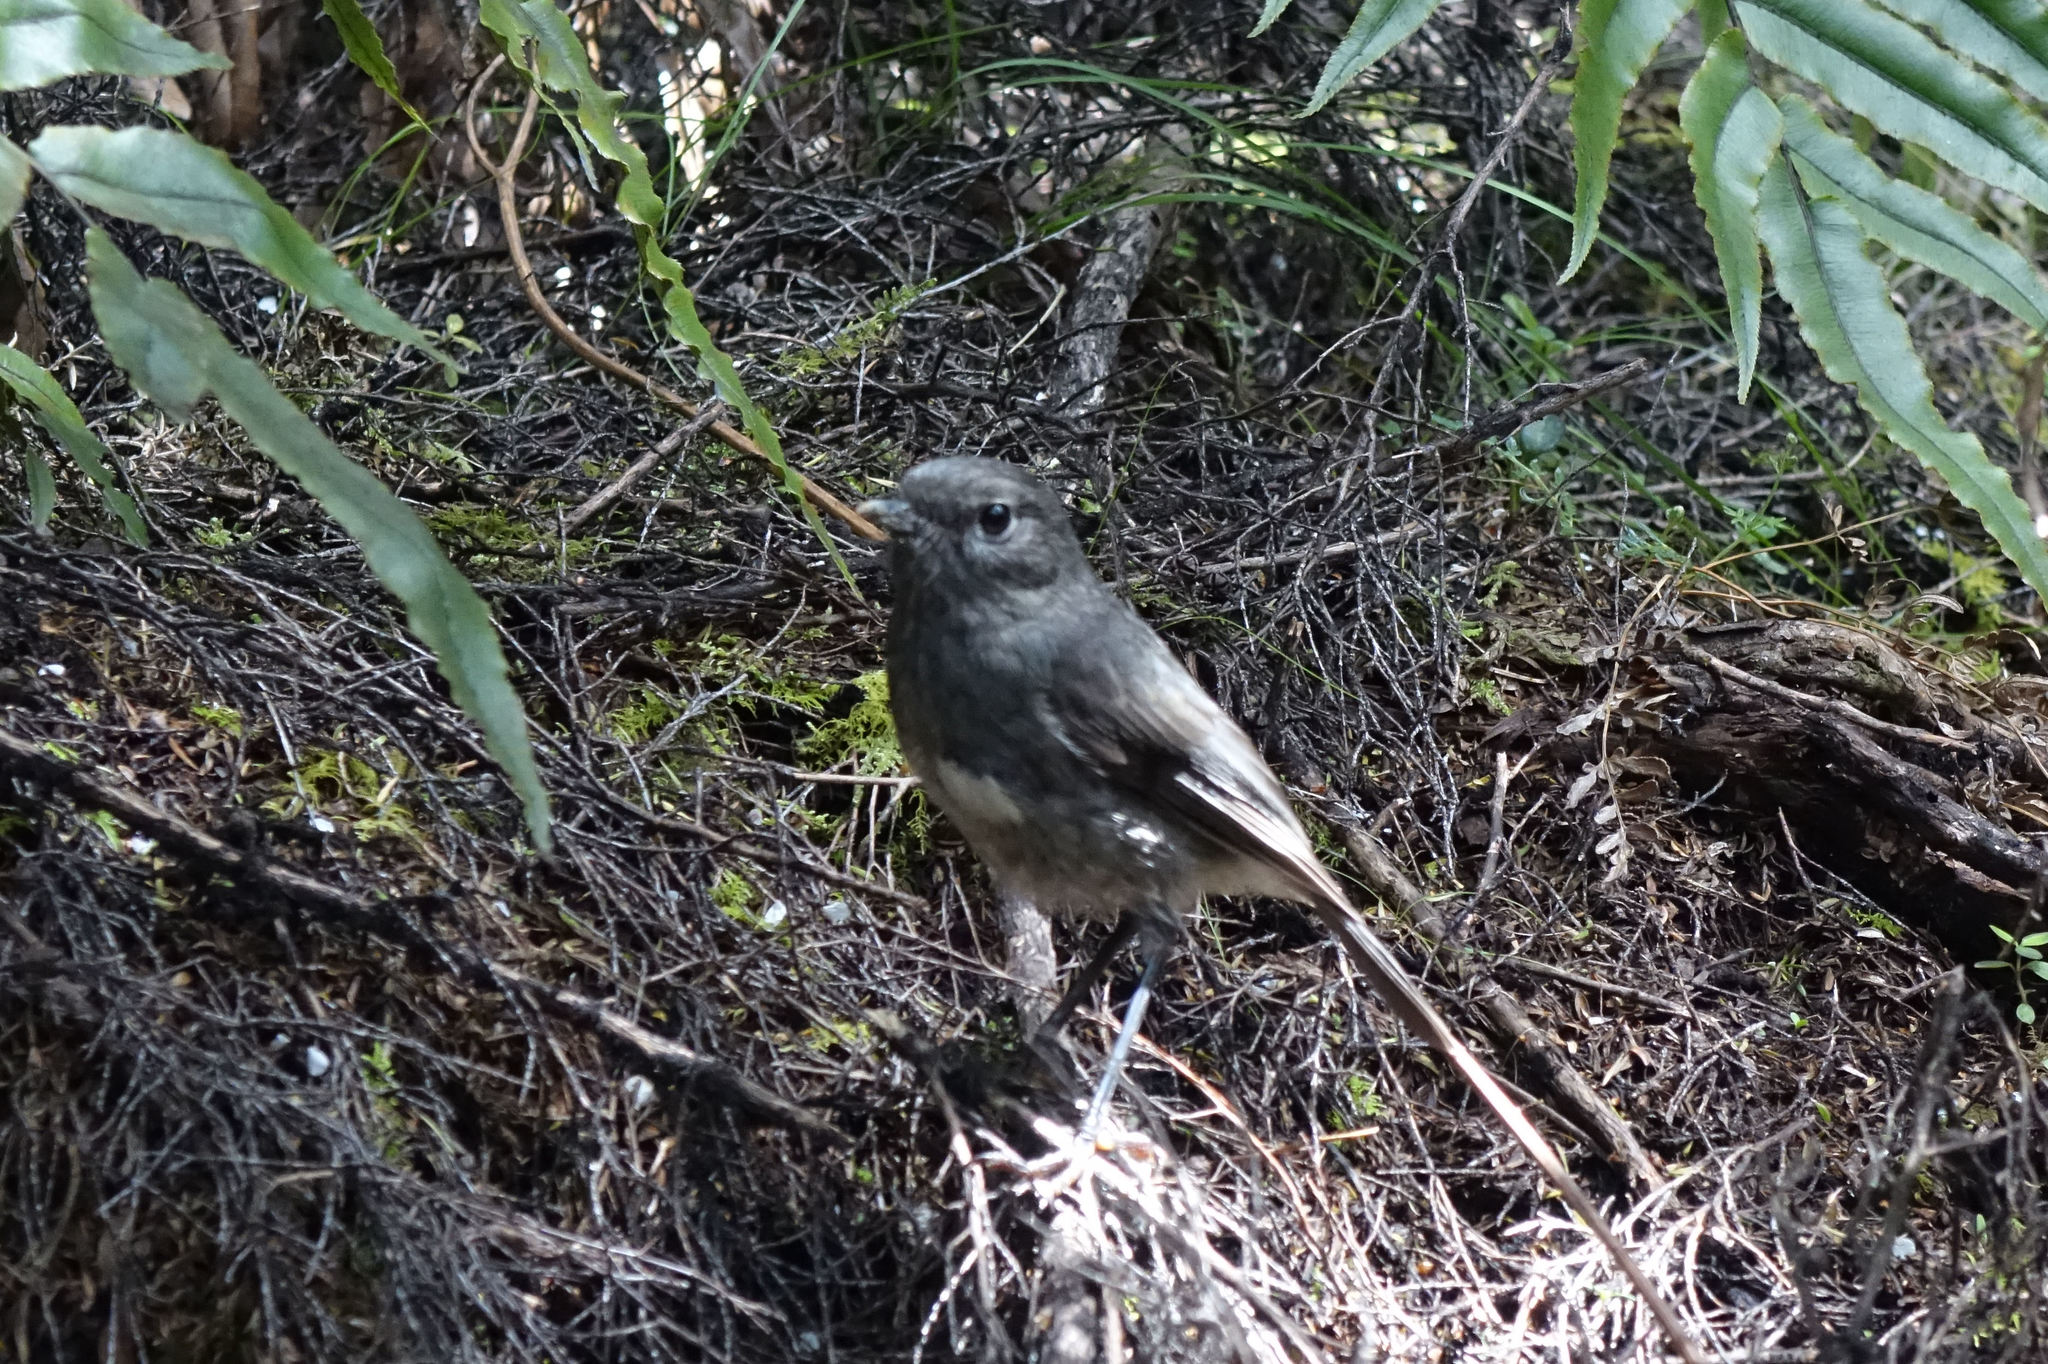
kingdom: Animalia
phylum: Chordata
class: Aves
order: Passeriformes
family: Petroicidae
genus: Petroica
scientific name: Petroica australis
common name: New zealand robin
